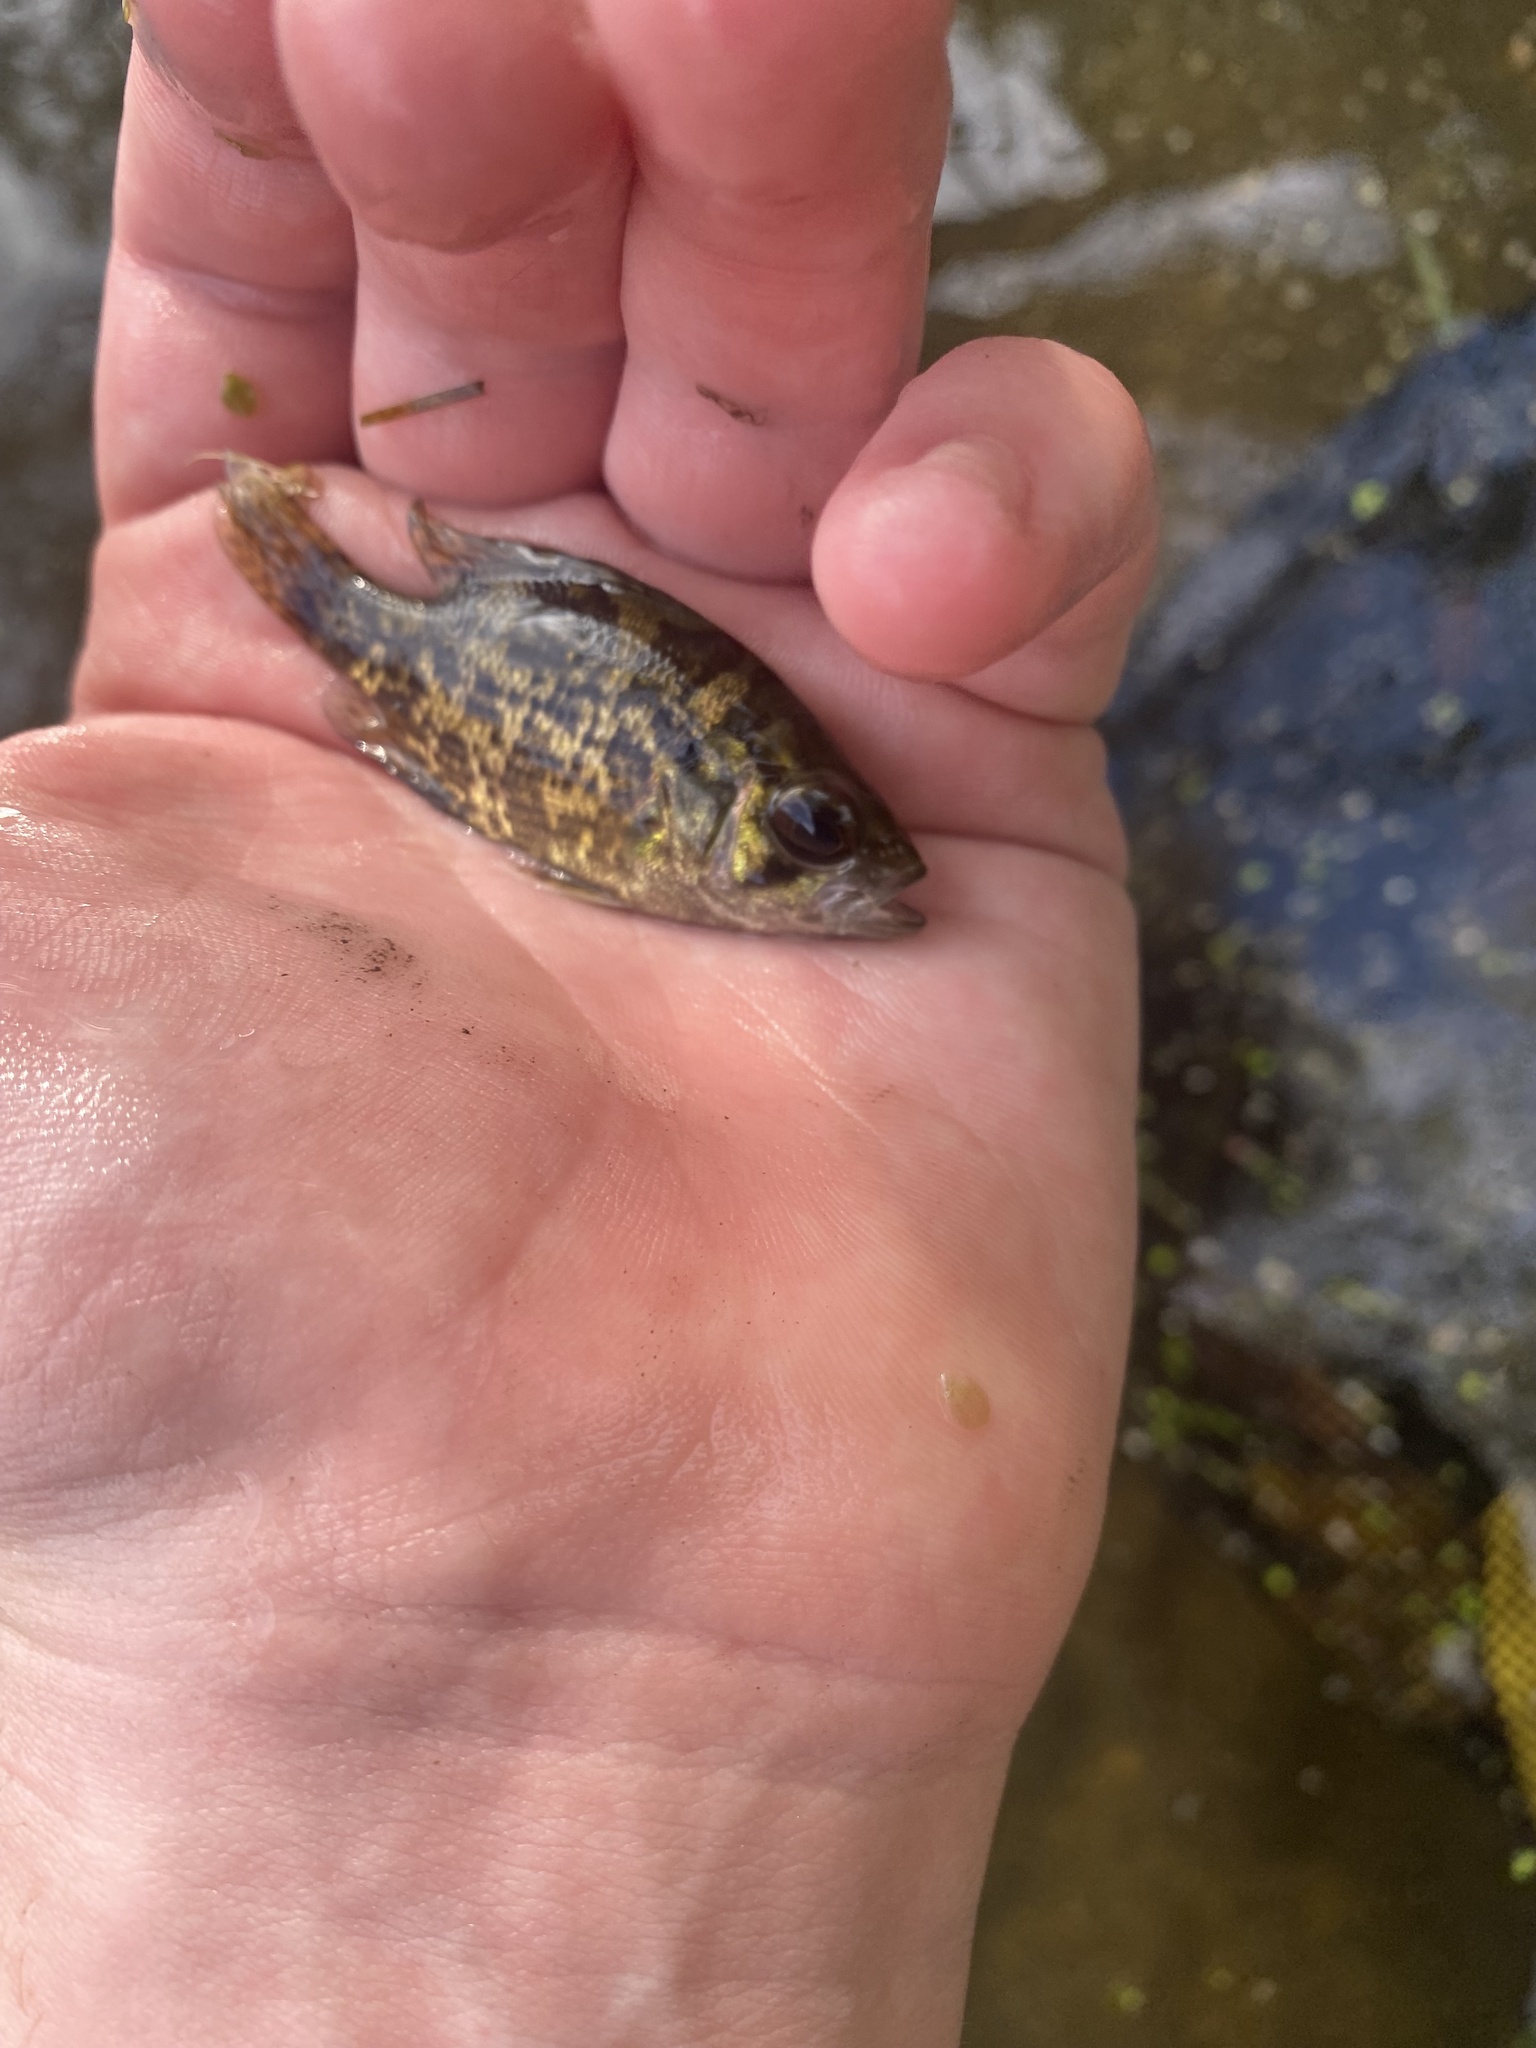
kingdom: Animalia
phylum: Chordata
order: Perciformes
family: Centrarchidae
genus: Ambloplites
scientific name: Ambloplites rupestris
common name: Rock bass
